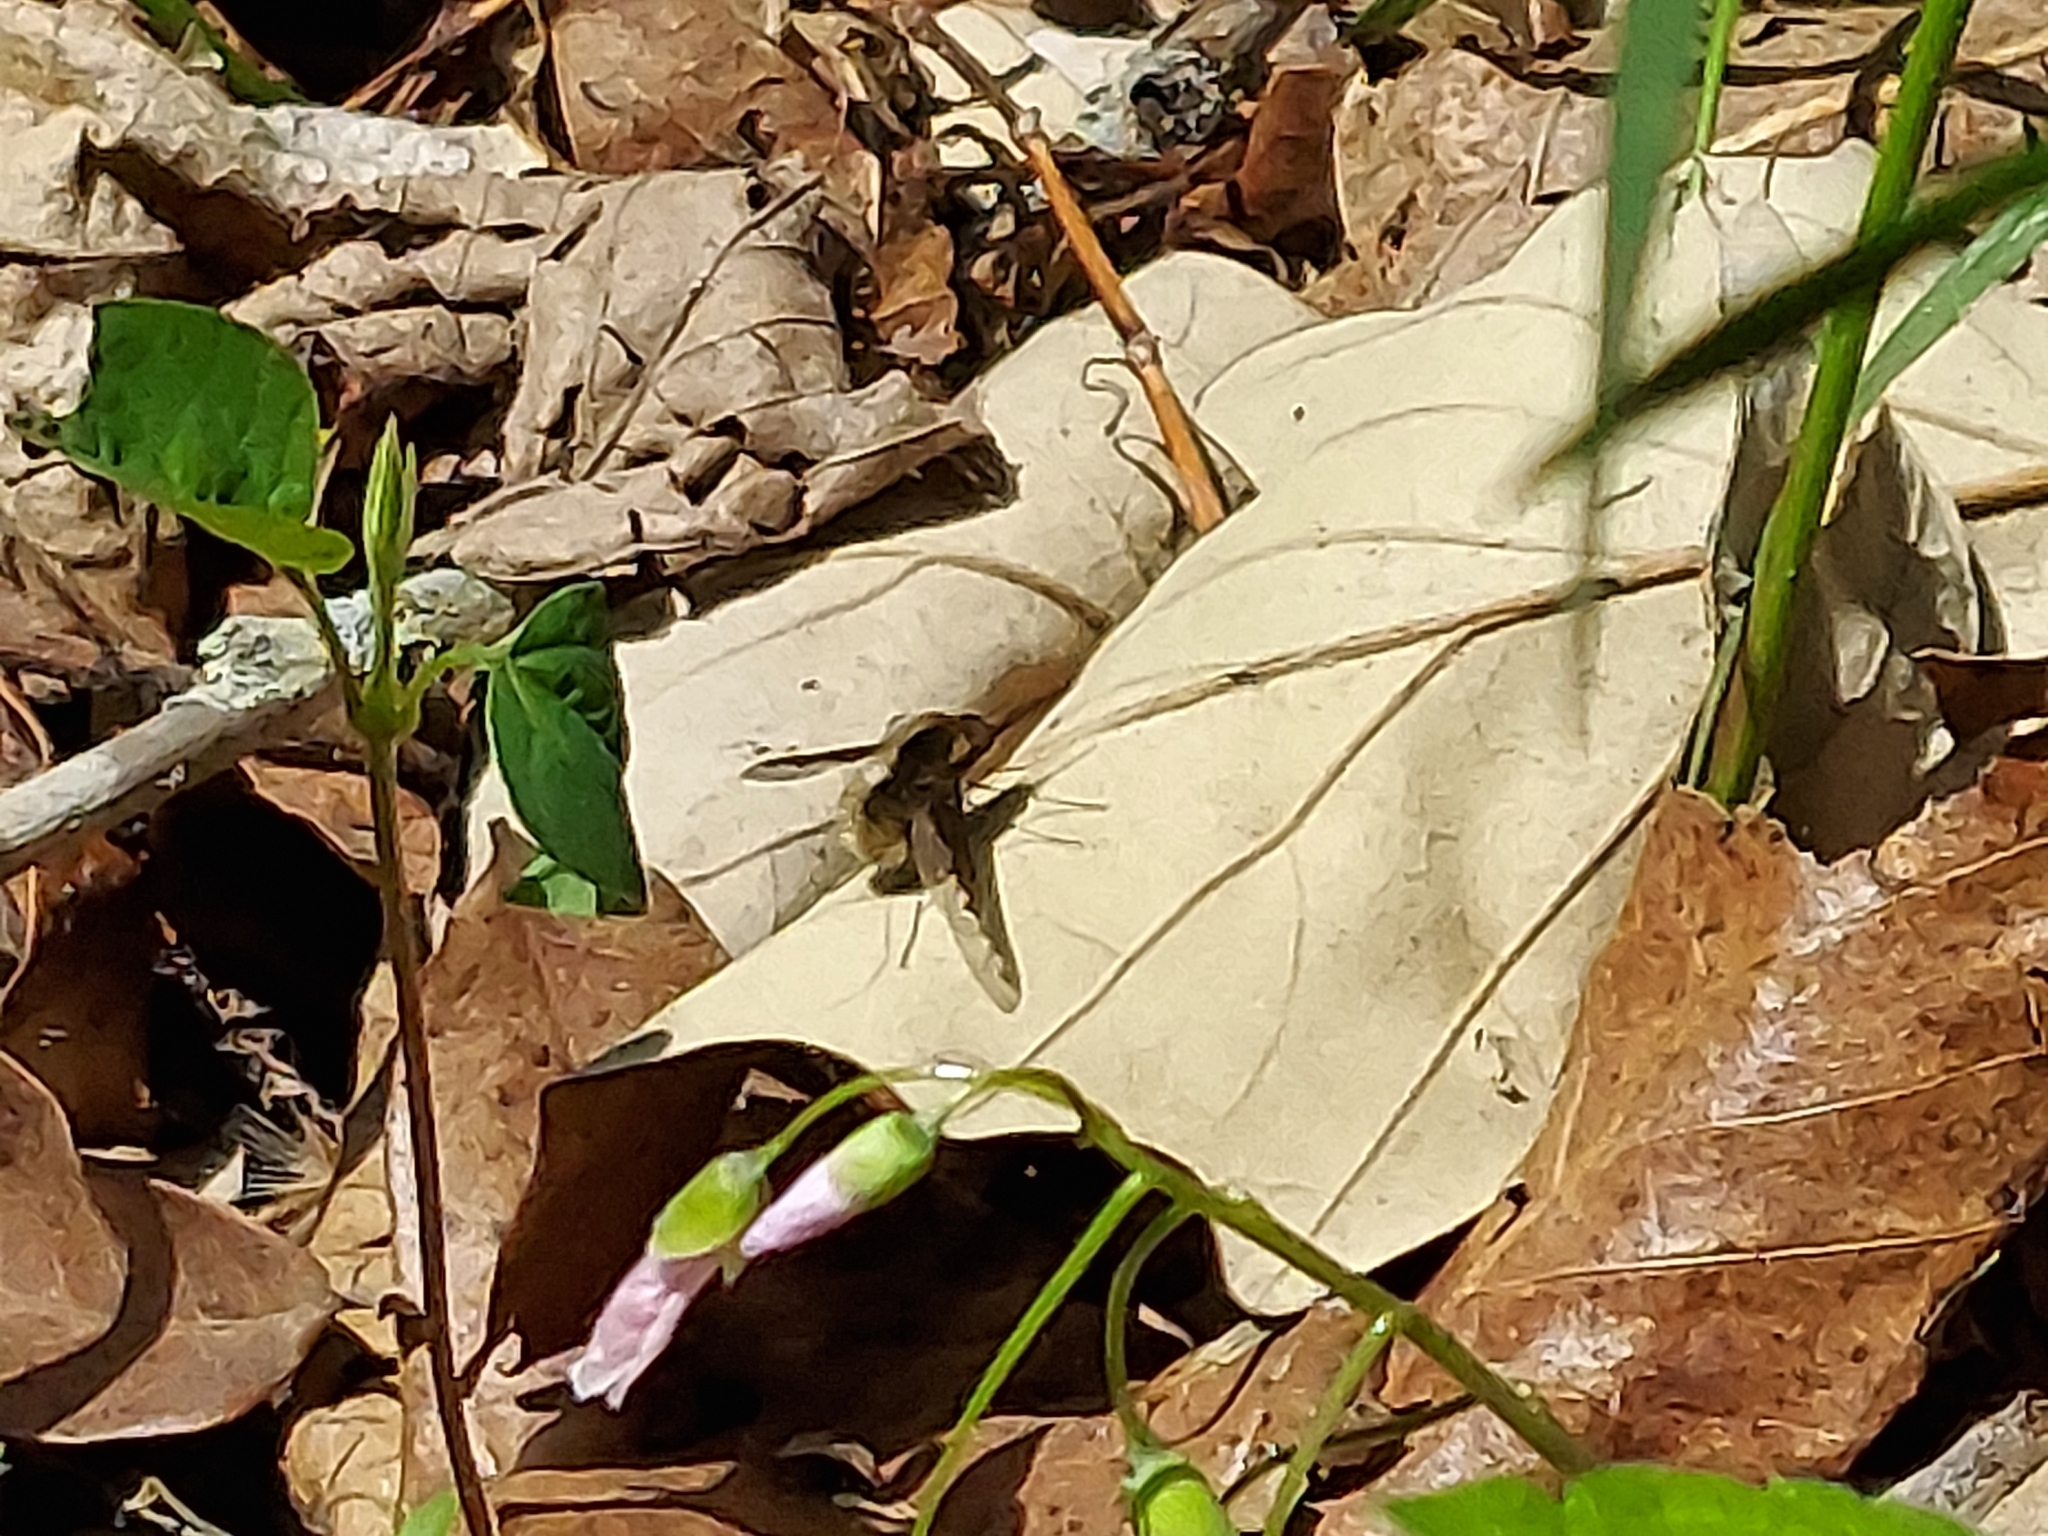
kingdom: Animalia
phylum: Arthropoda
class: Insecta
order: Diptera
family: Bombyliidae
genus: Bombylius
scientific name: Bombylius major
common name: Bee fly
